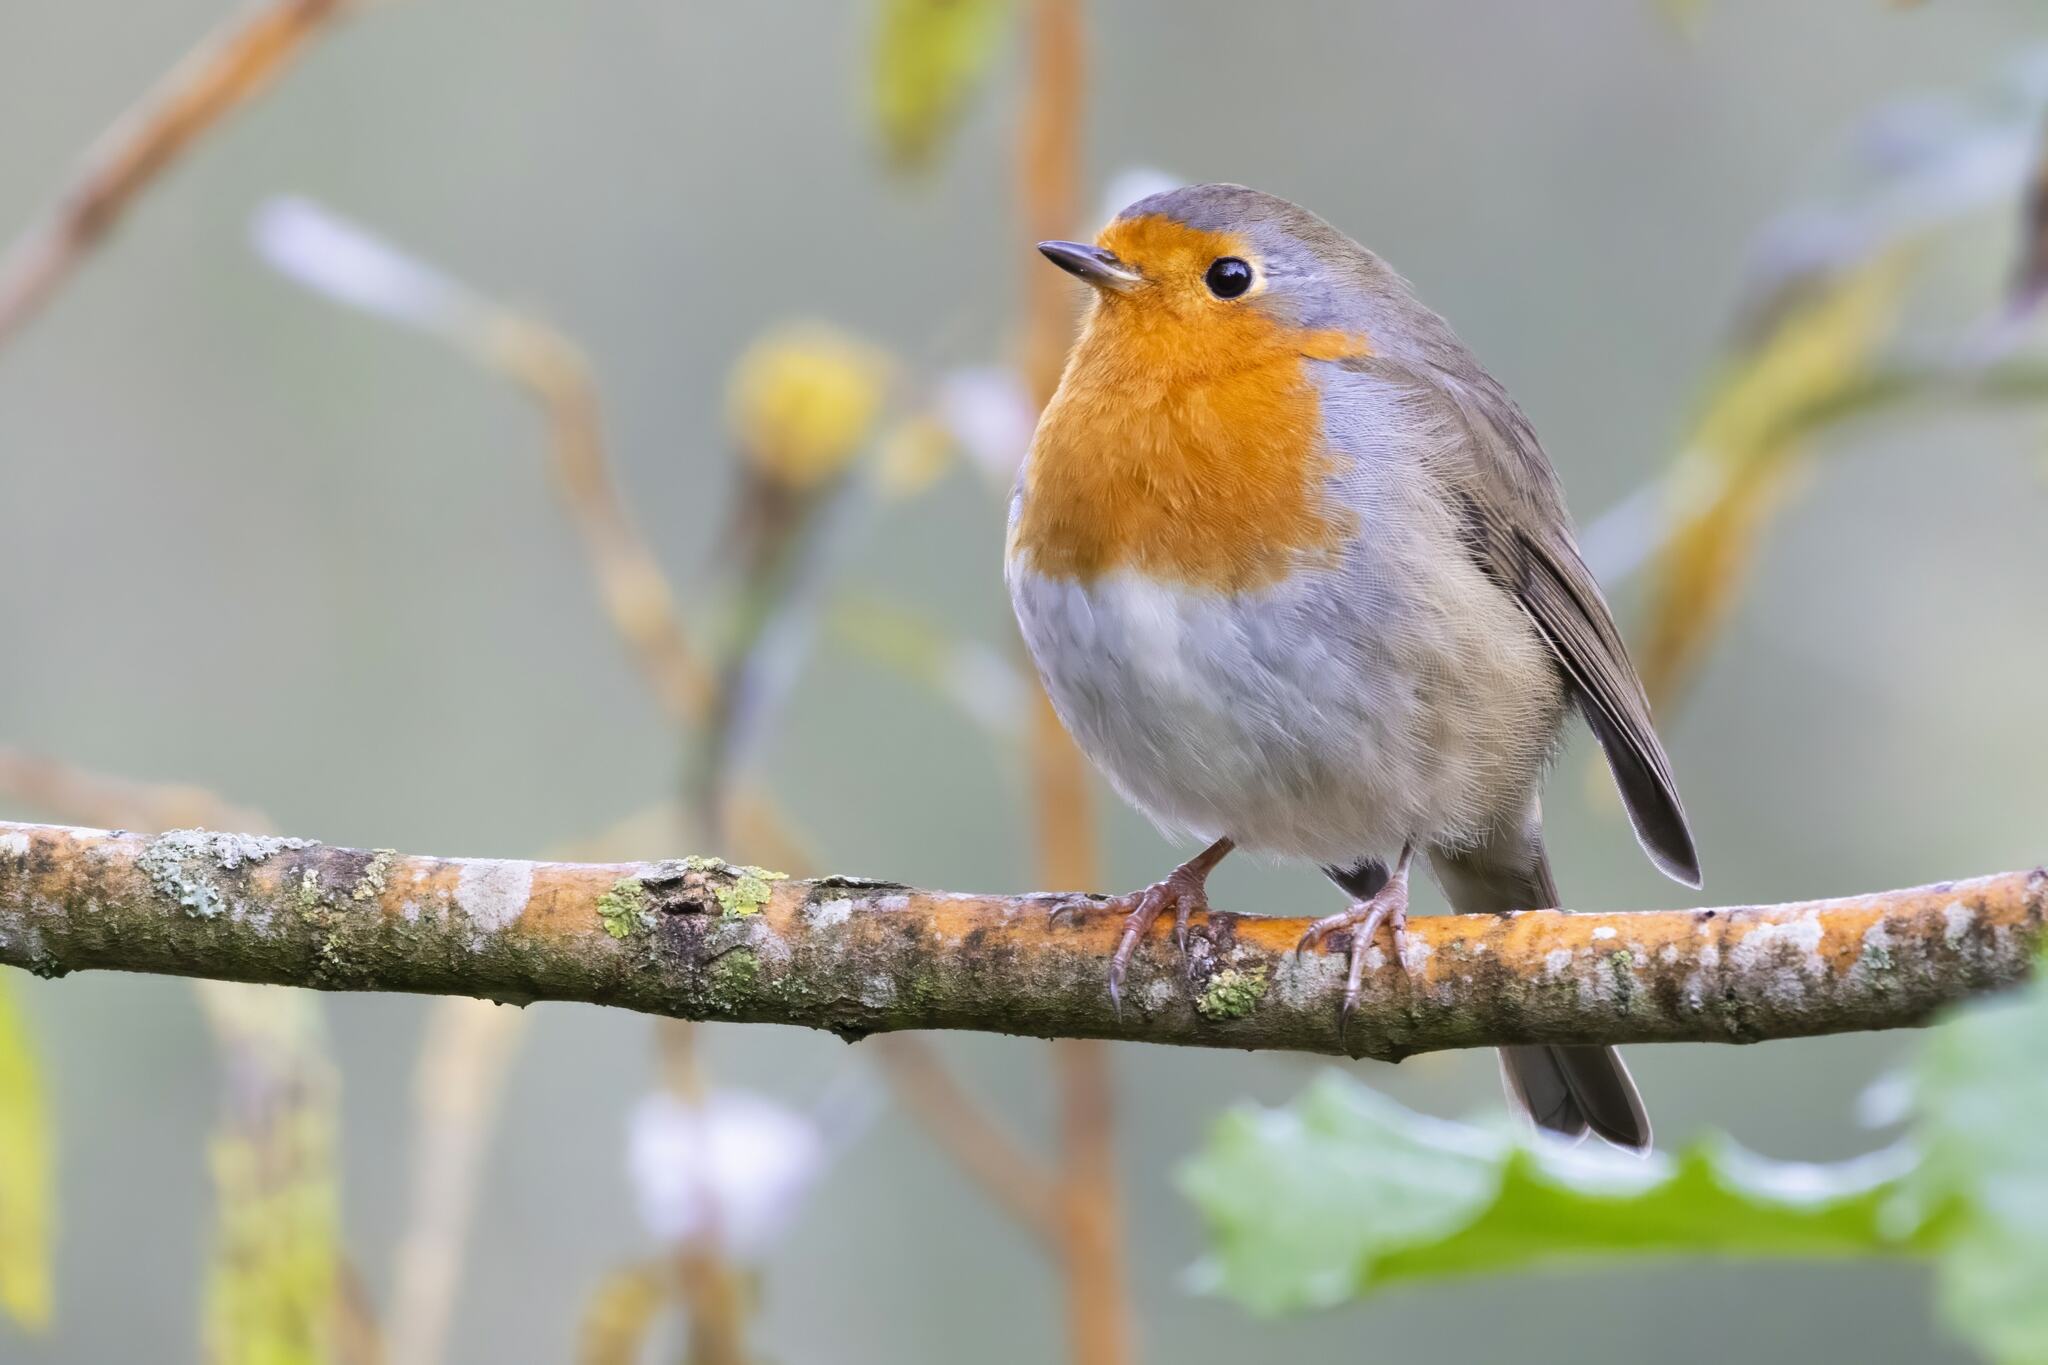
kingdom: Animalia
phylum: Chordata
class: Aves
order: Passeriformes
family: Muscicapidae
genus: Erithacus
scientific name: Erithacus rubecula
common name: European robin
